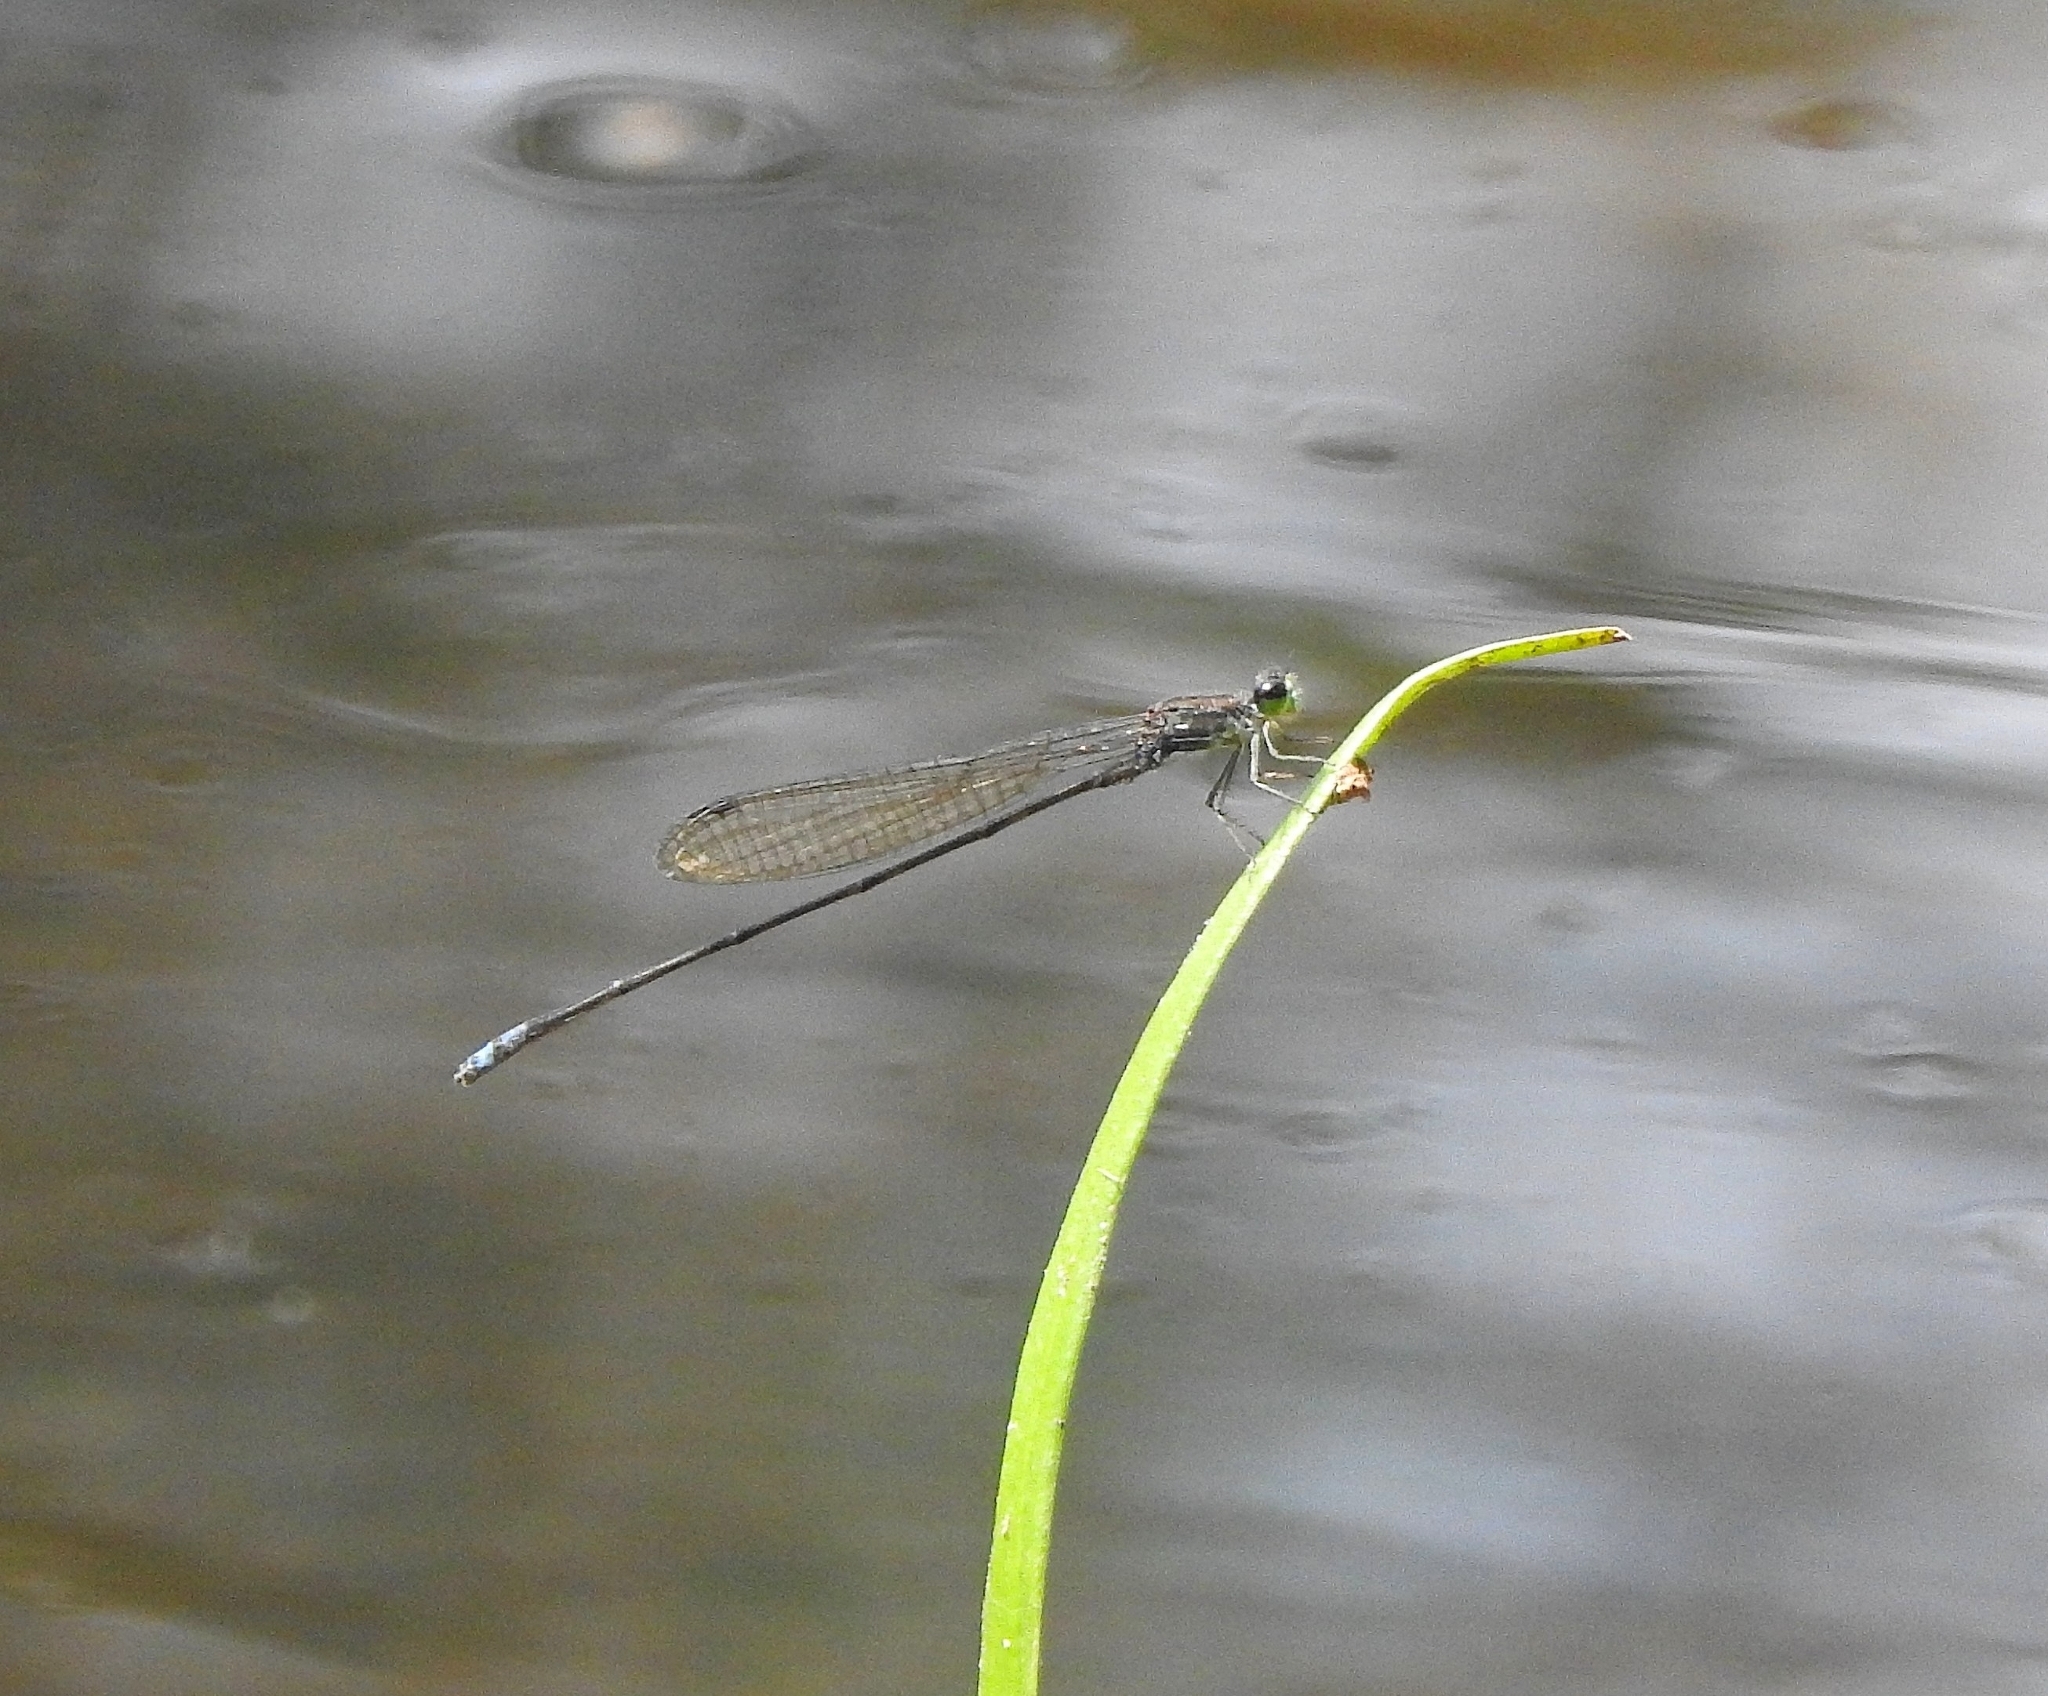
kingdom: Animalia
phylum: Arthropoda
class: Insecta
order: Odonata
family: Coenagrionidae
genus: Pseudagrion
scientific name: Pseudagrion indicum
